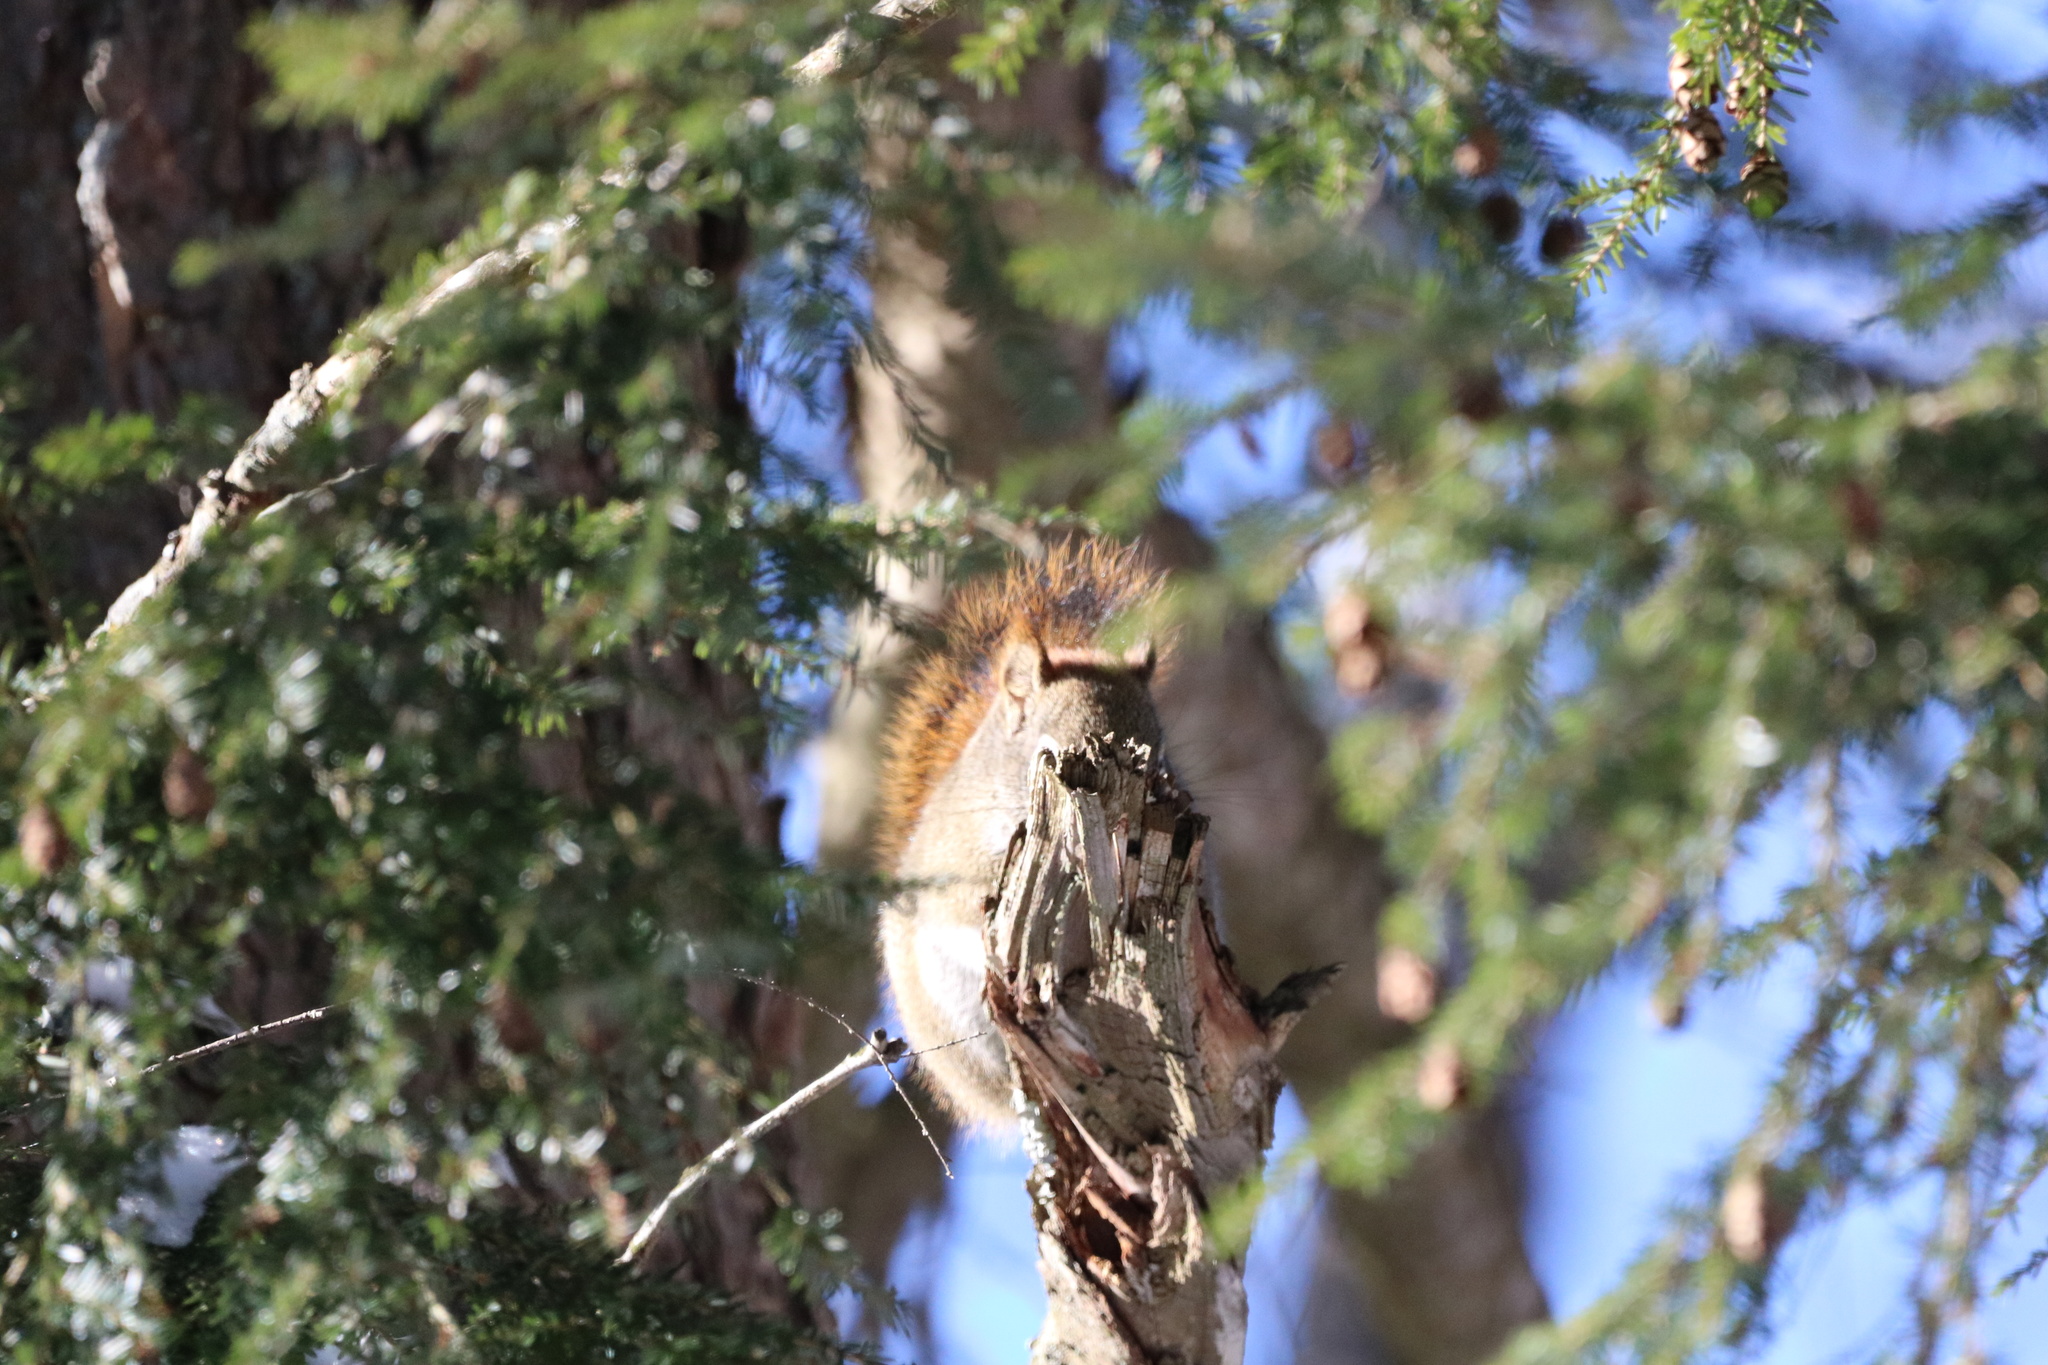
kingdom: Animalia
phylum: Chordata
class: Mammalia
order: Rodentia
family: Sciuridae
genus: Tamiasciurus
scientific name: Tamiasciurus hudsonicus
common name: Red squirrel
